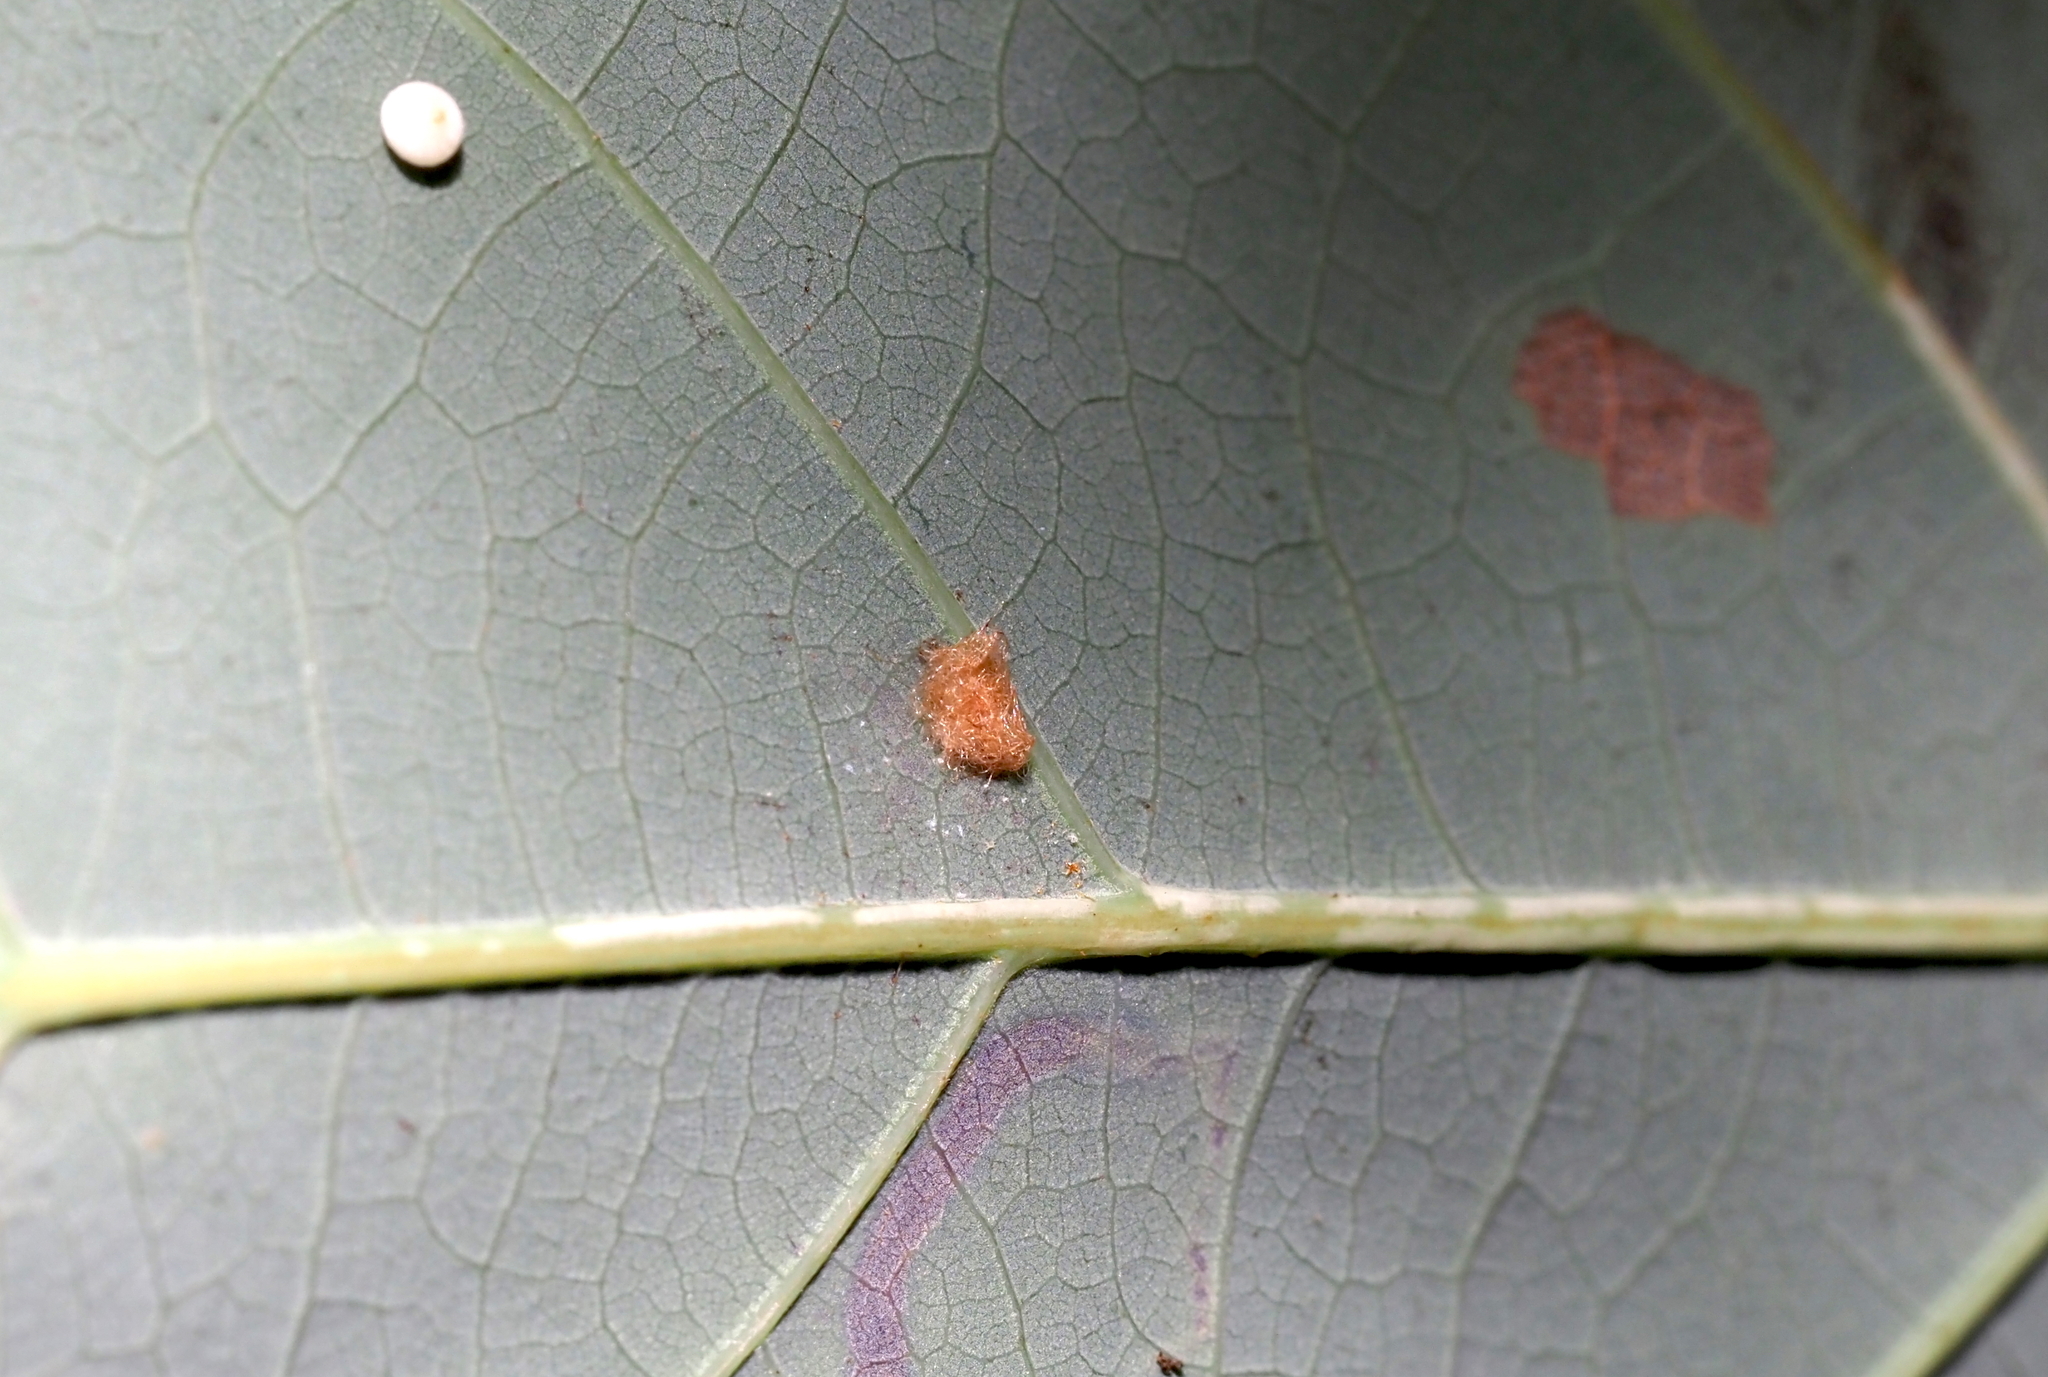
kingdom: Animalia
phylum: Arthropoda
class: Insecta
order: Hymenoptera
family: Cynipidae
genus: Neuroterus
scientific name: Neuroterus quercusverrucarum
